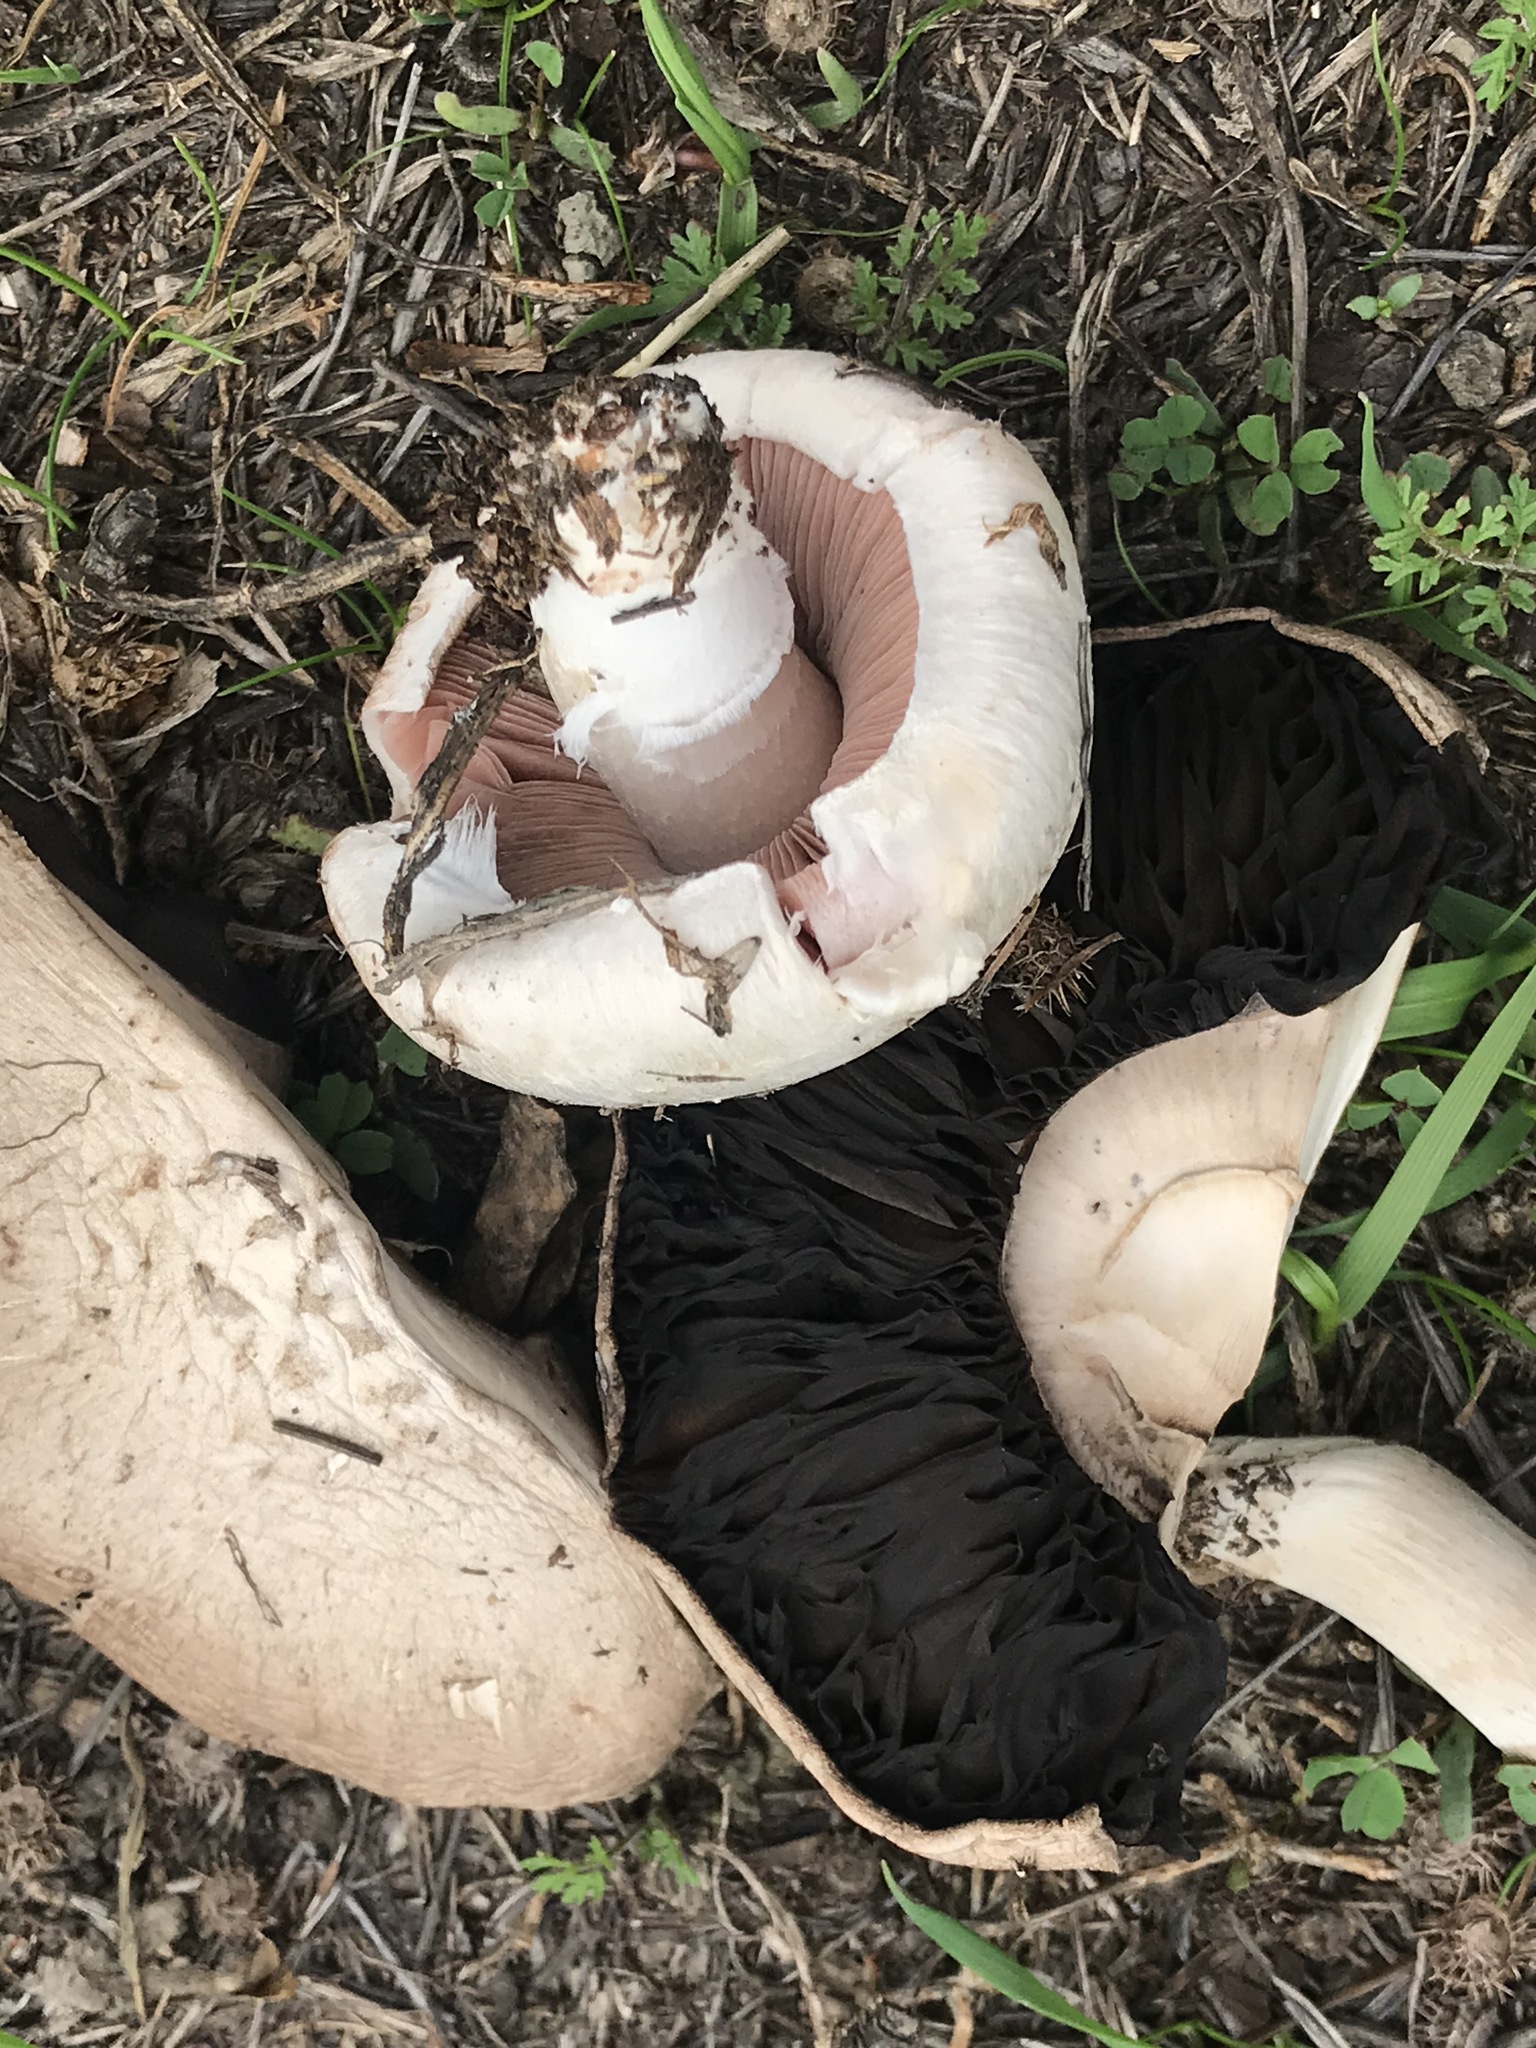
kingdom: Fungi
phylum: Basidiomycota
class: Agaricomycetes
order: Agaricales
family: Agaricaceae
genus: Agaricus
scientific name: Agaricus campestris
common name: Field mushroom
